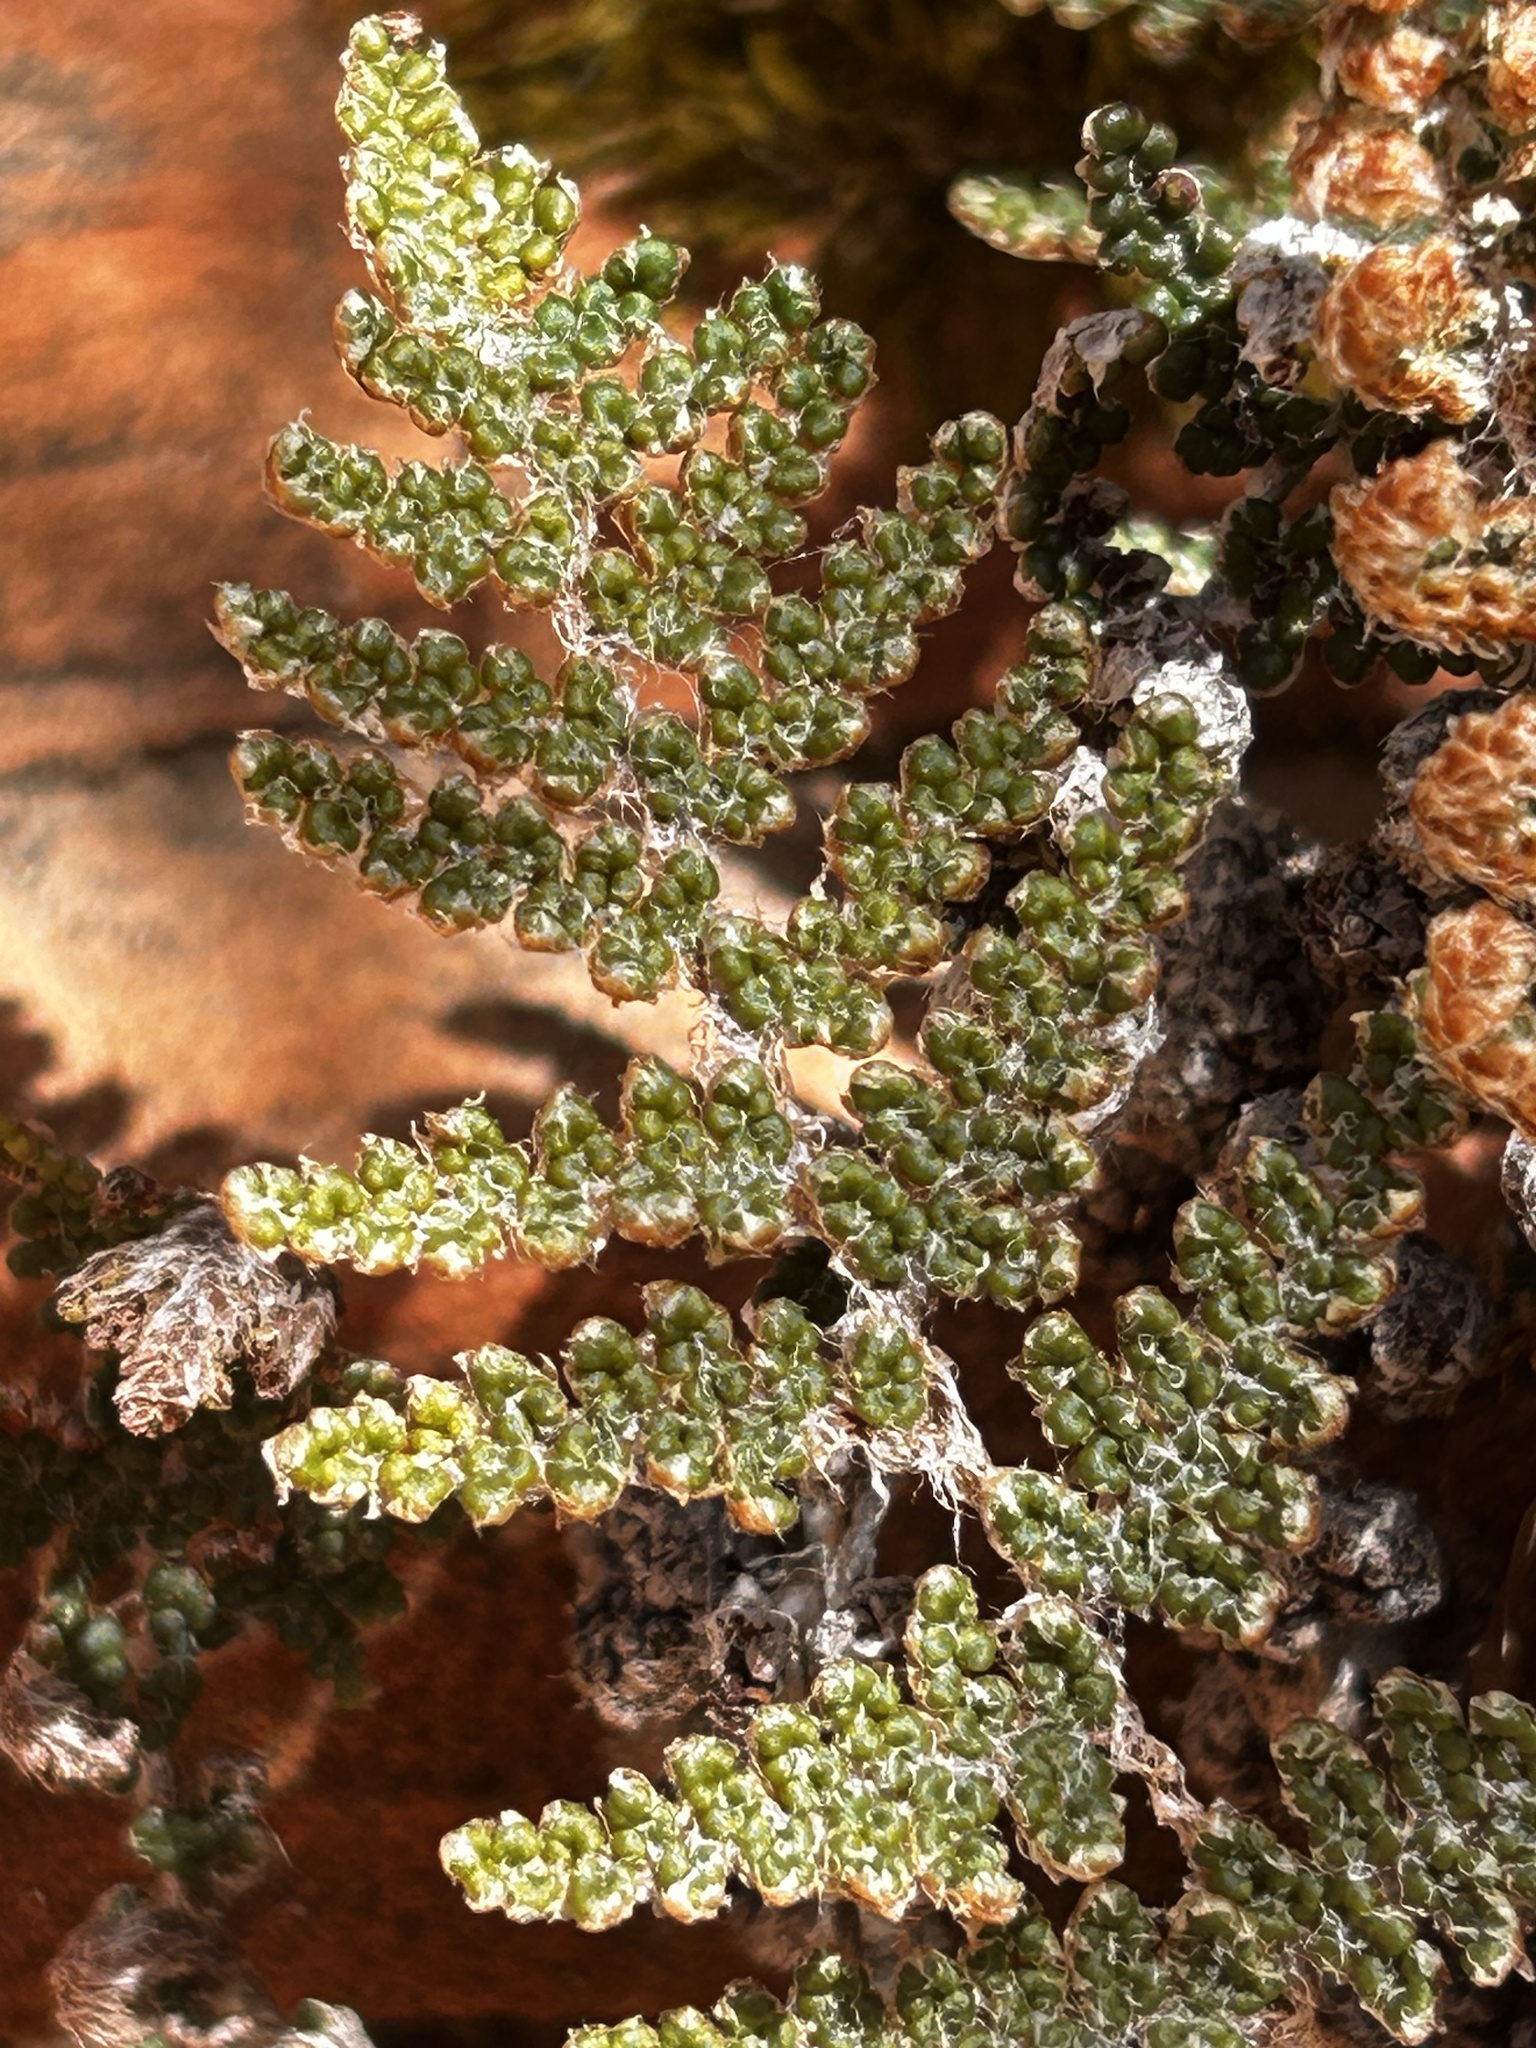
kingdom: Plantae
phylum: Tracheophyta
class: Polypodiopsida
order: Polypodiales
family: Pteridaceae
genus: Myriopteris
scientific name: Myriopteris covillei
